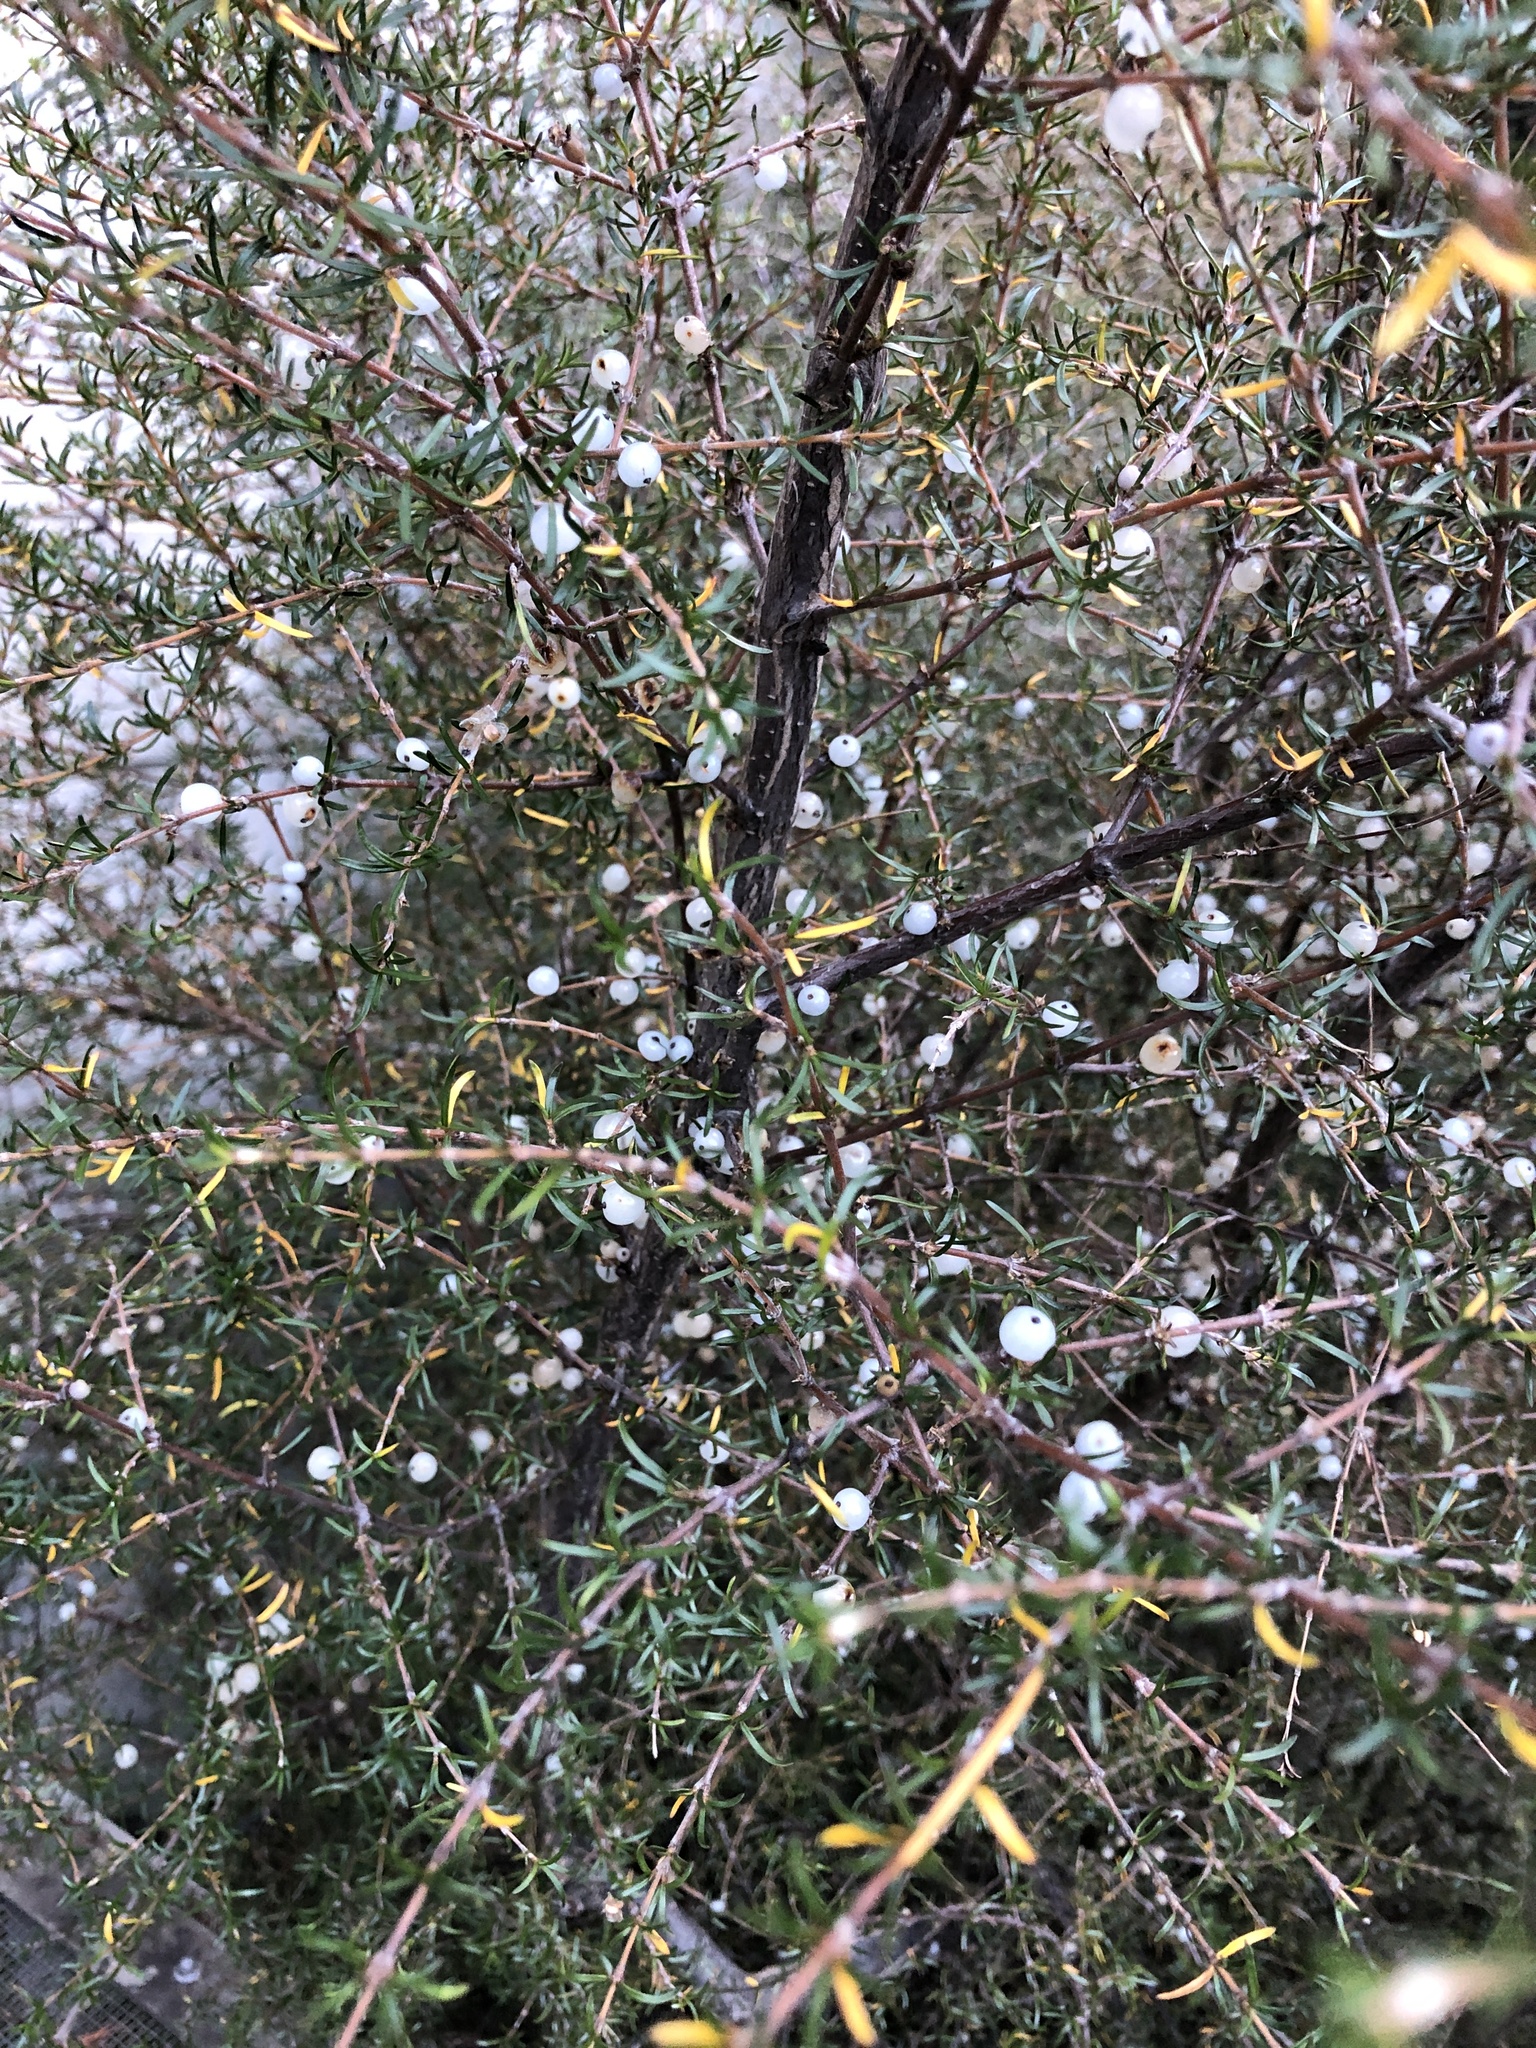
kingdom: Plantae
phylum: Tracheophyta
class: Magnoliopsida
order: Gentianales
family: Rubiaceae
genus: Coprosma
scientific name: Coprosma rugosa
